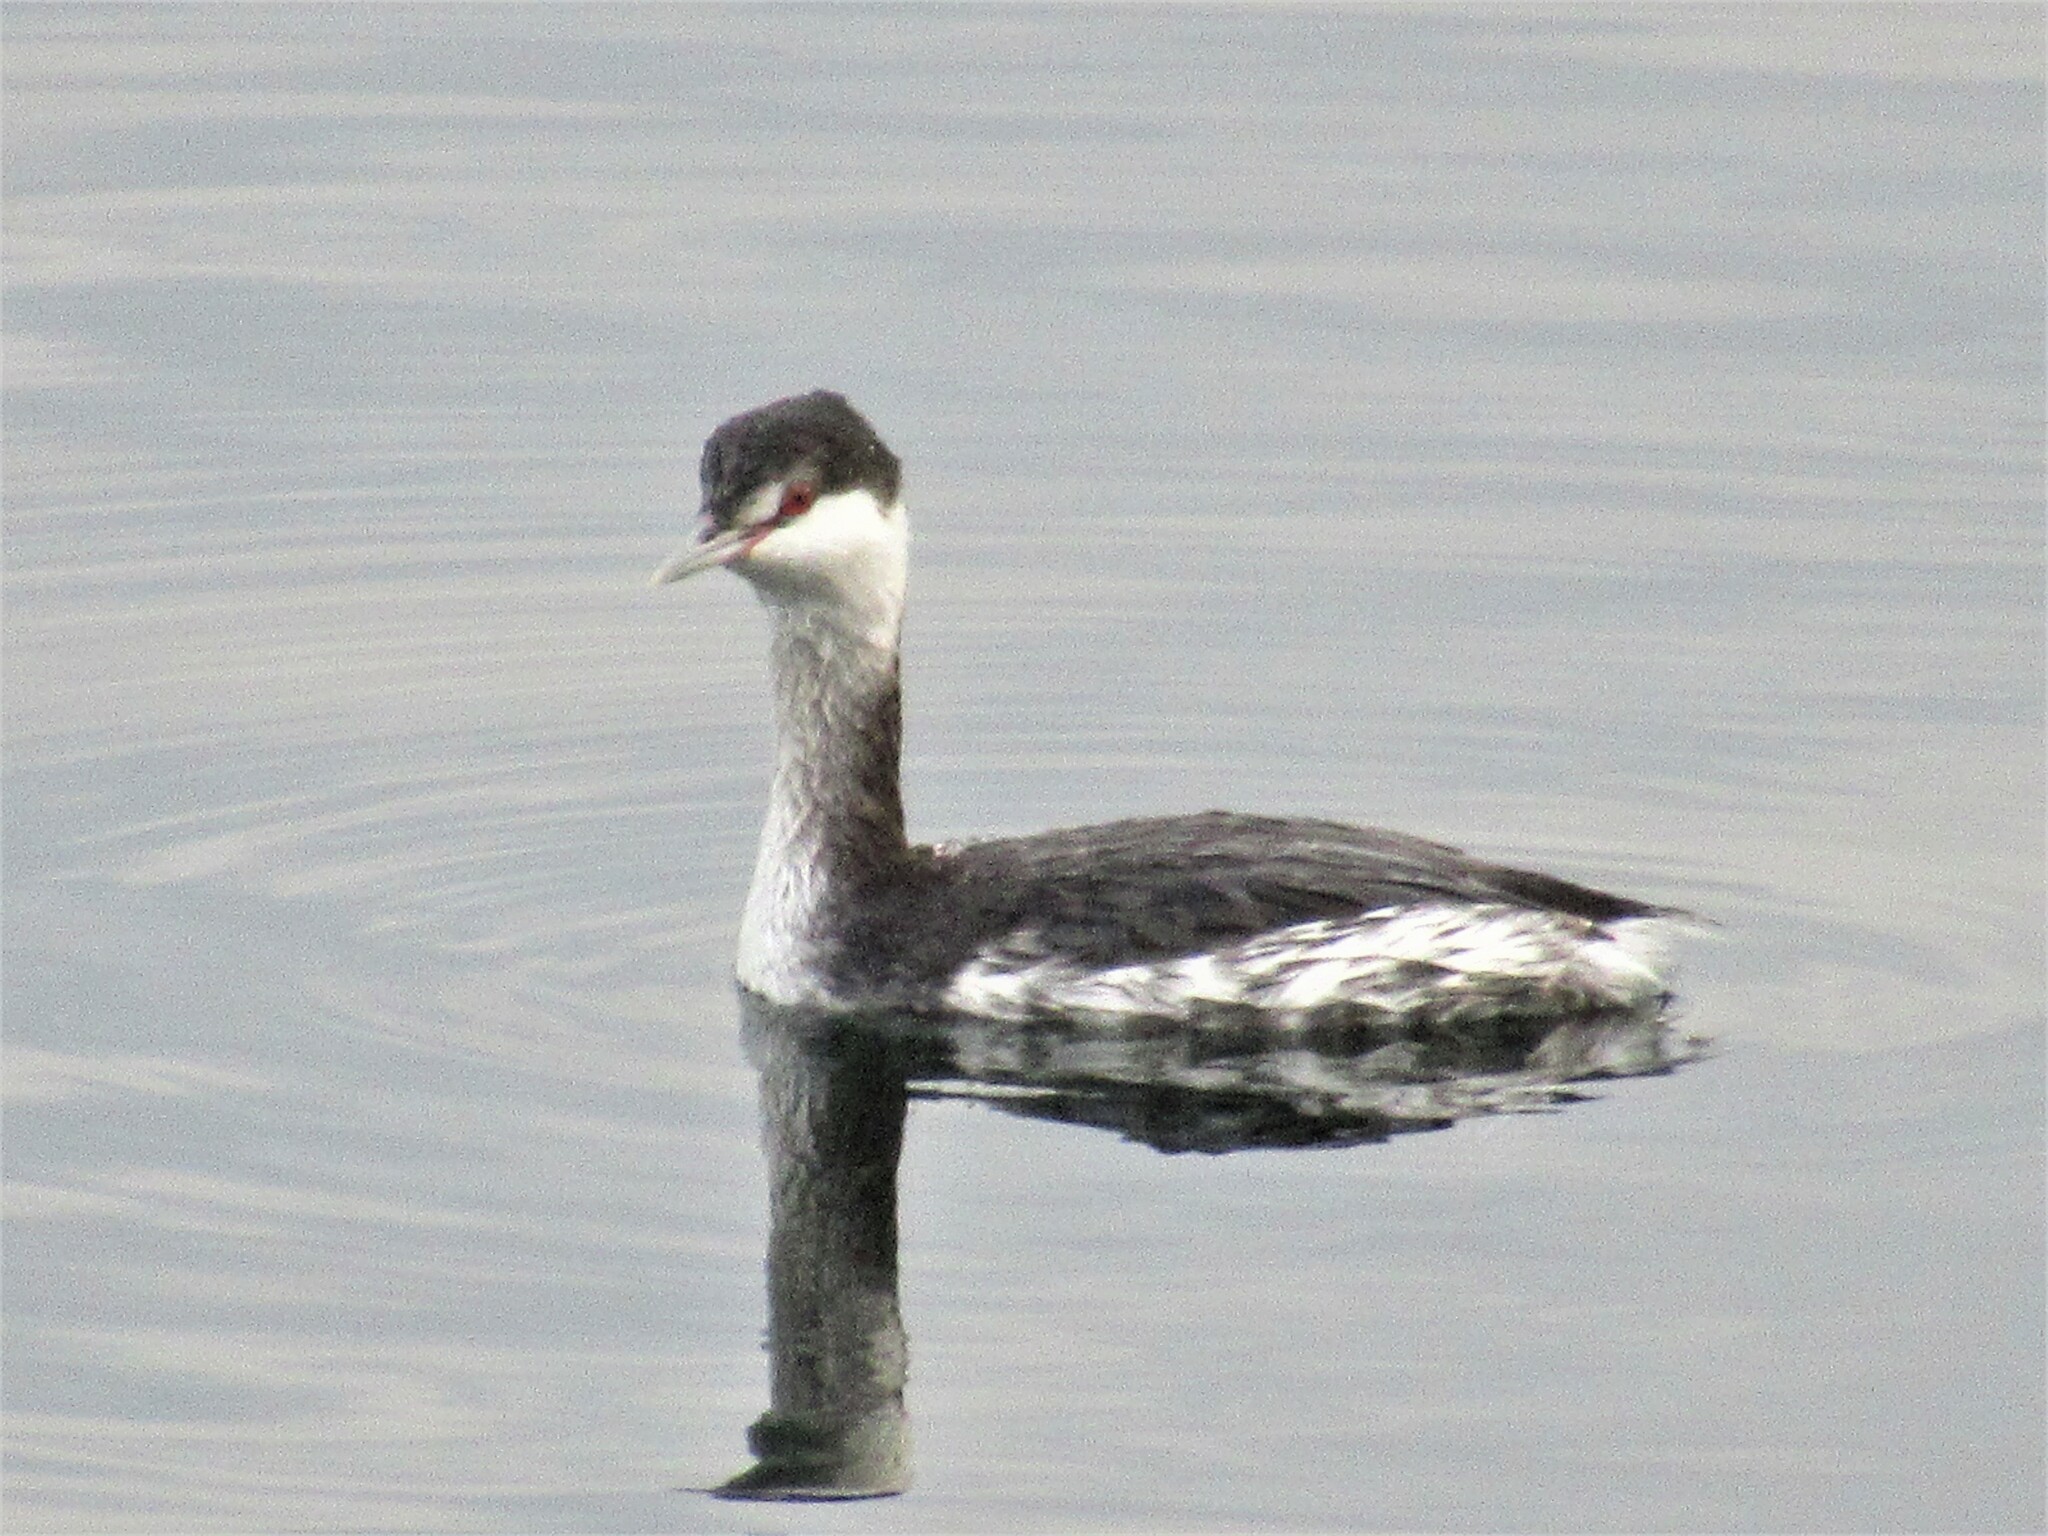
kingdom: Animalia
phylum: Chordata
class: Aves
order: Podicipediformes
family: Podicipedidae
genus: Podiceps
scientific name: Podiceps auritus
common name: Horned grebe
